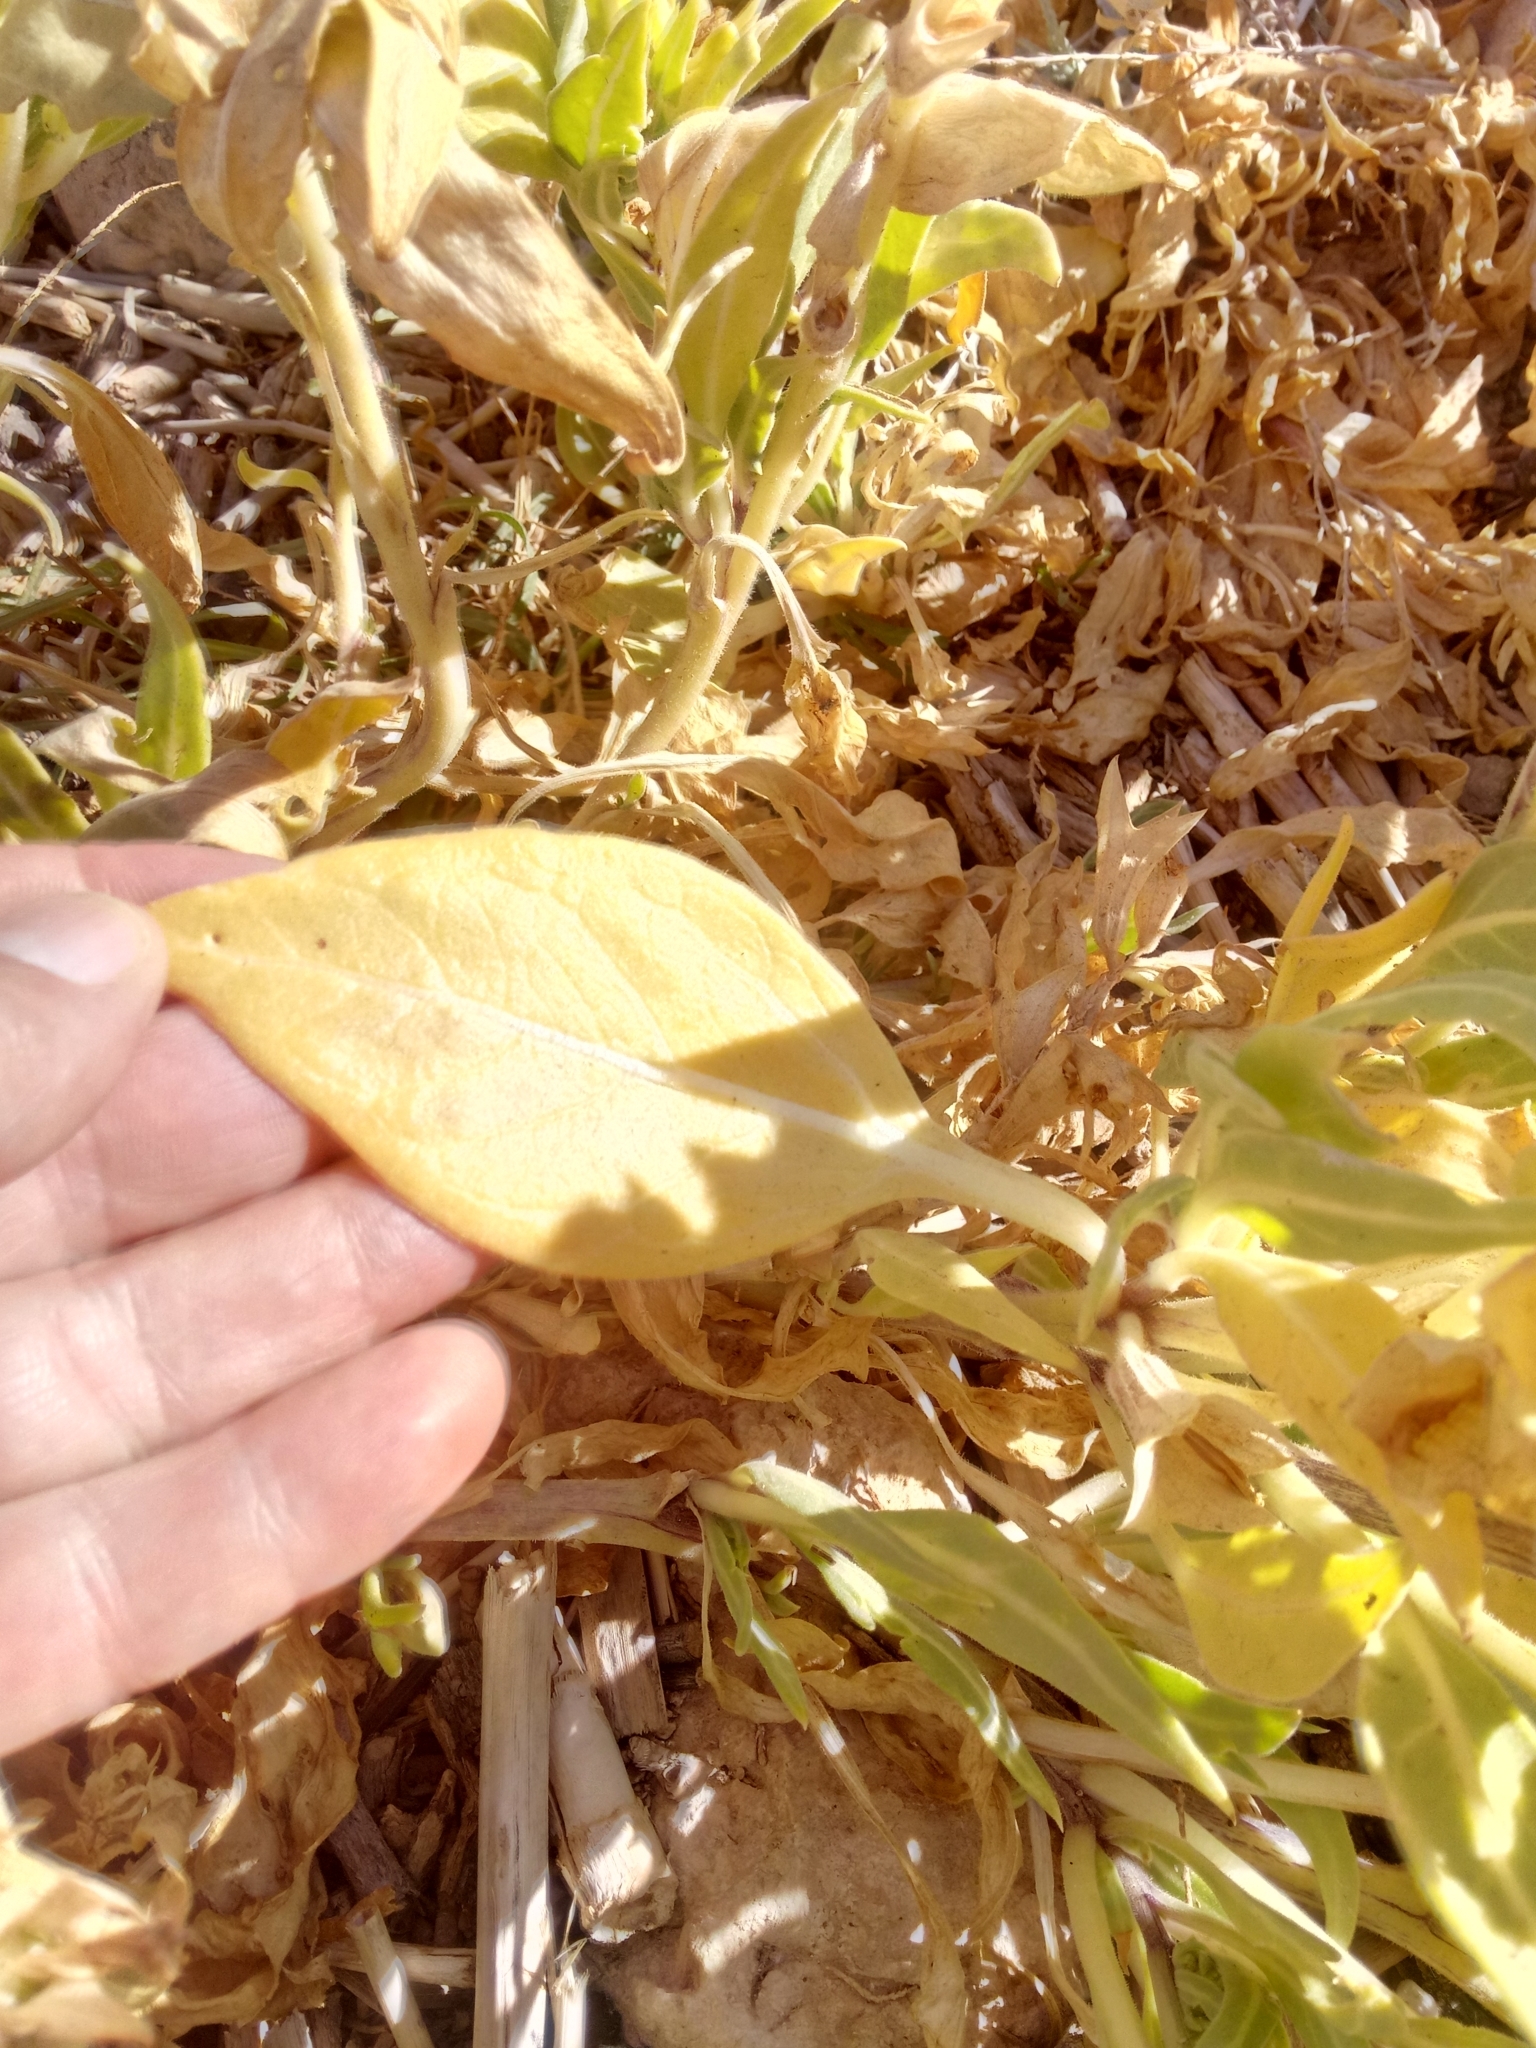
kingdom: Plantae
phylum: Tracheophyta
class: Magnoliopsida
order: Solanales
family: Solanaceae
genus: Hyoscyamus
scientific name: Hyoscyamus muticus
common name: Henbane
